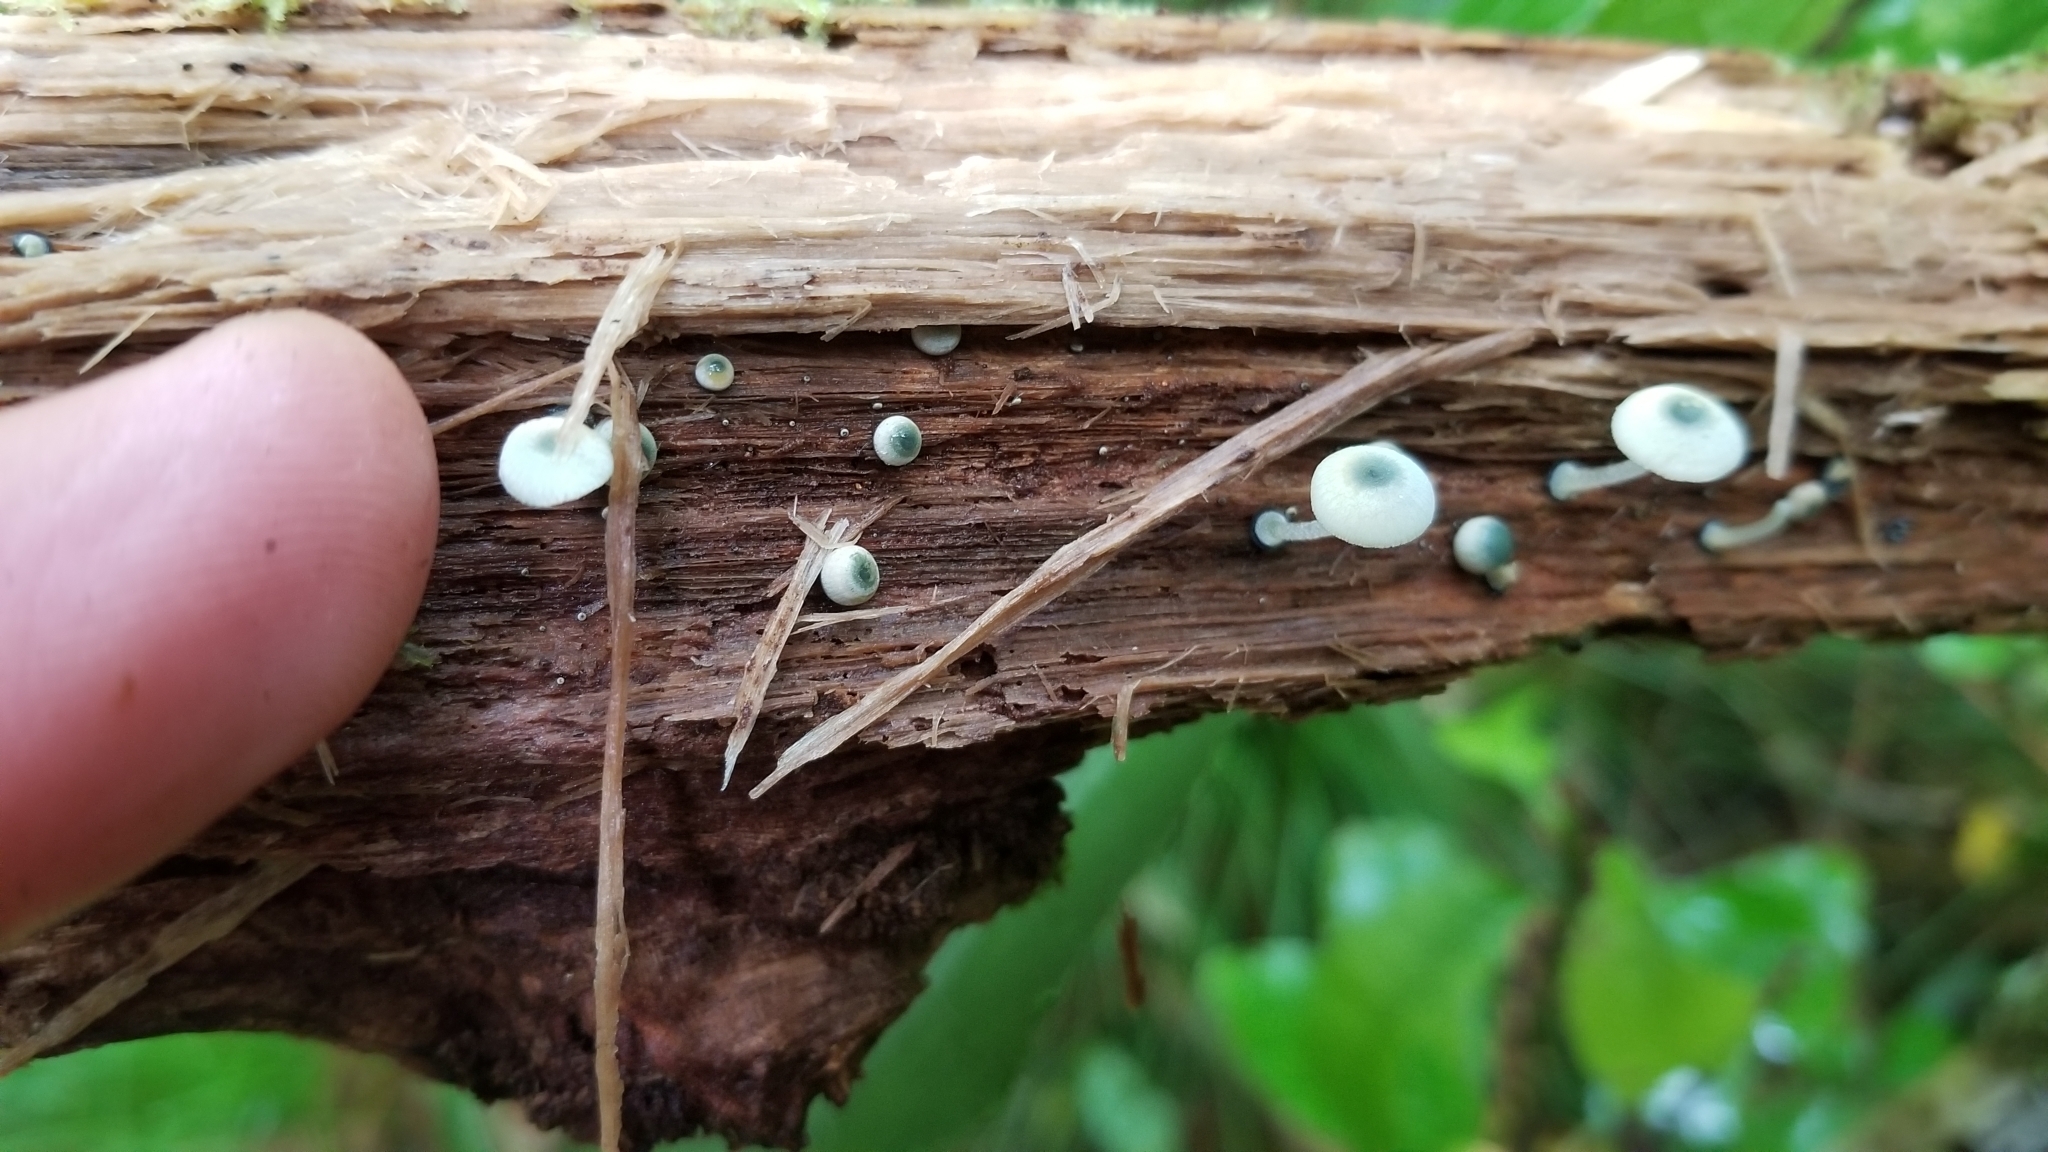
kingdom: Fungi
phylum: Basidiomycota
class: Agaricomycetes
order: Agaricales
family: Mycenaceae
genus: Mycena
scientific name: Mycena interrupta
